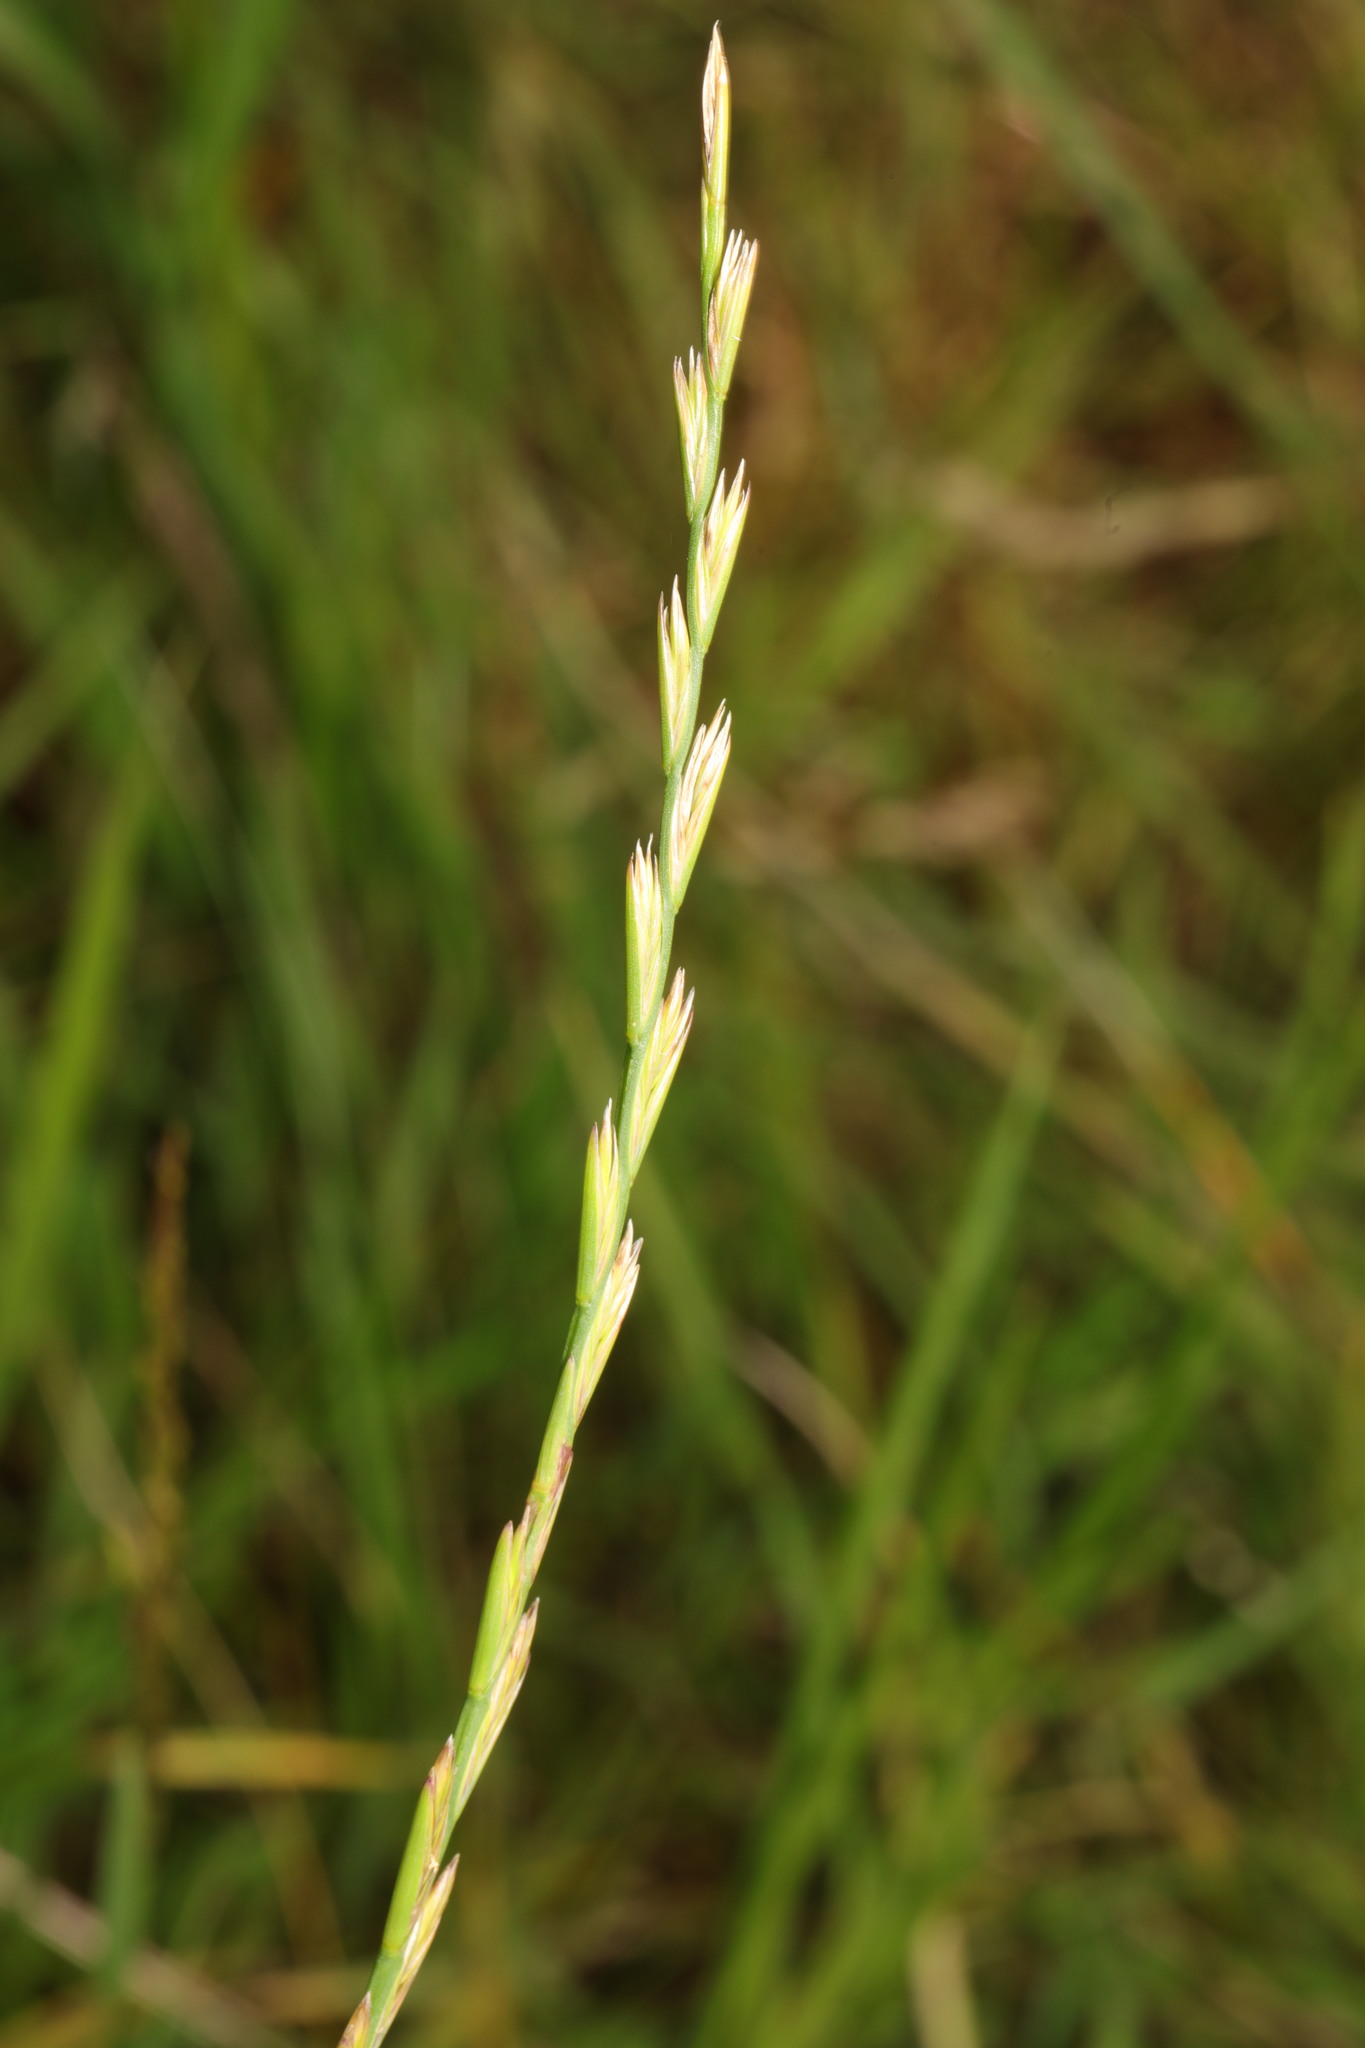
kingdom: Plantae
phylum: Tracheophyta
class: Liliopsida
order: Poales
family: Poaceae
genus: Lolium
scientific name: Lolium perenne
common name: Perennial ryegrass
